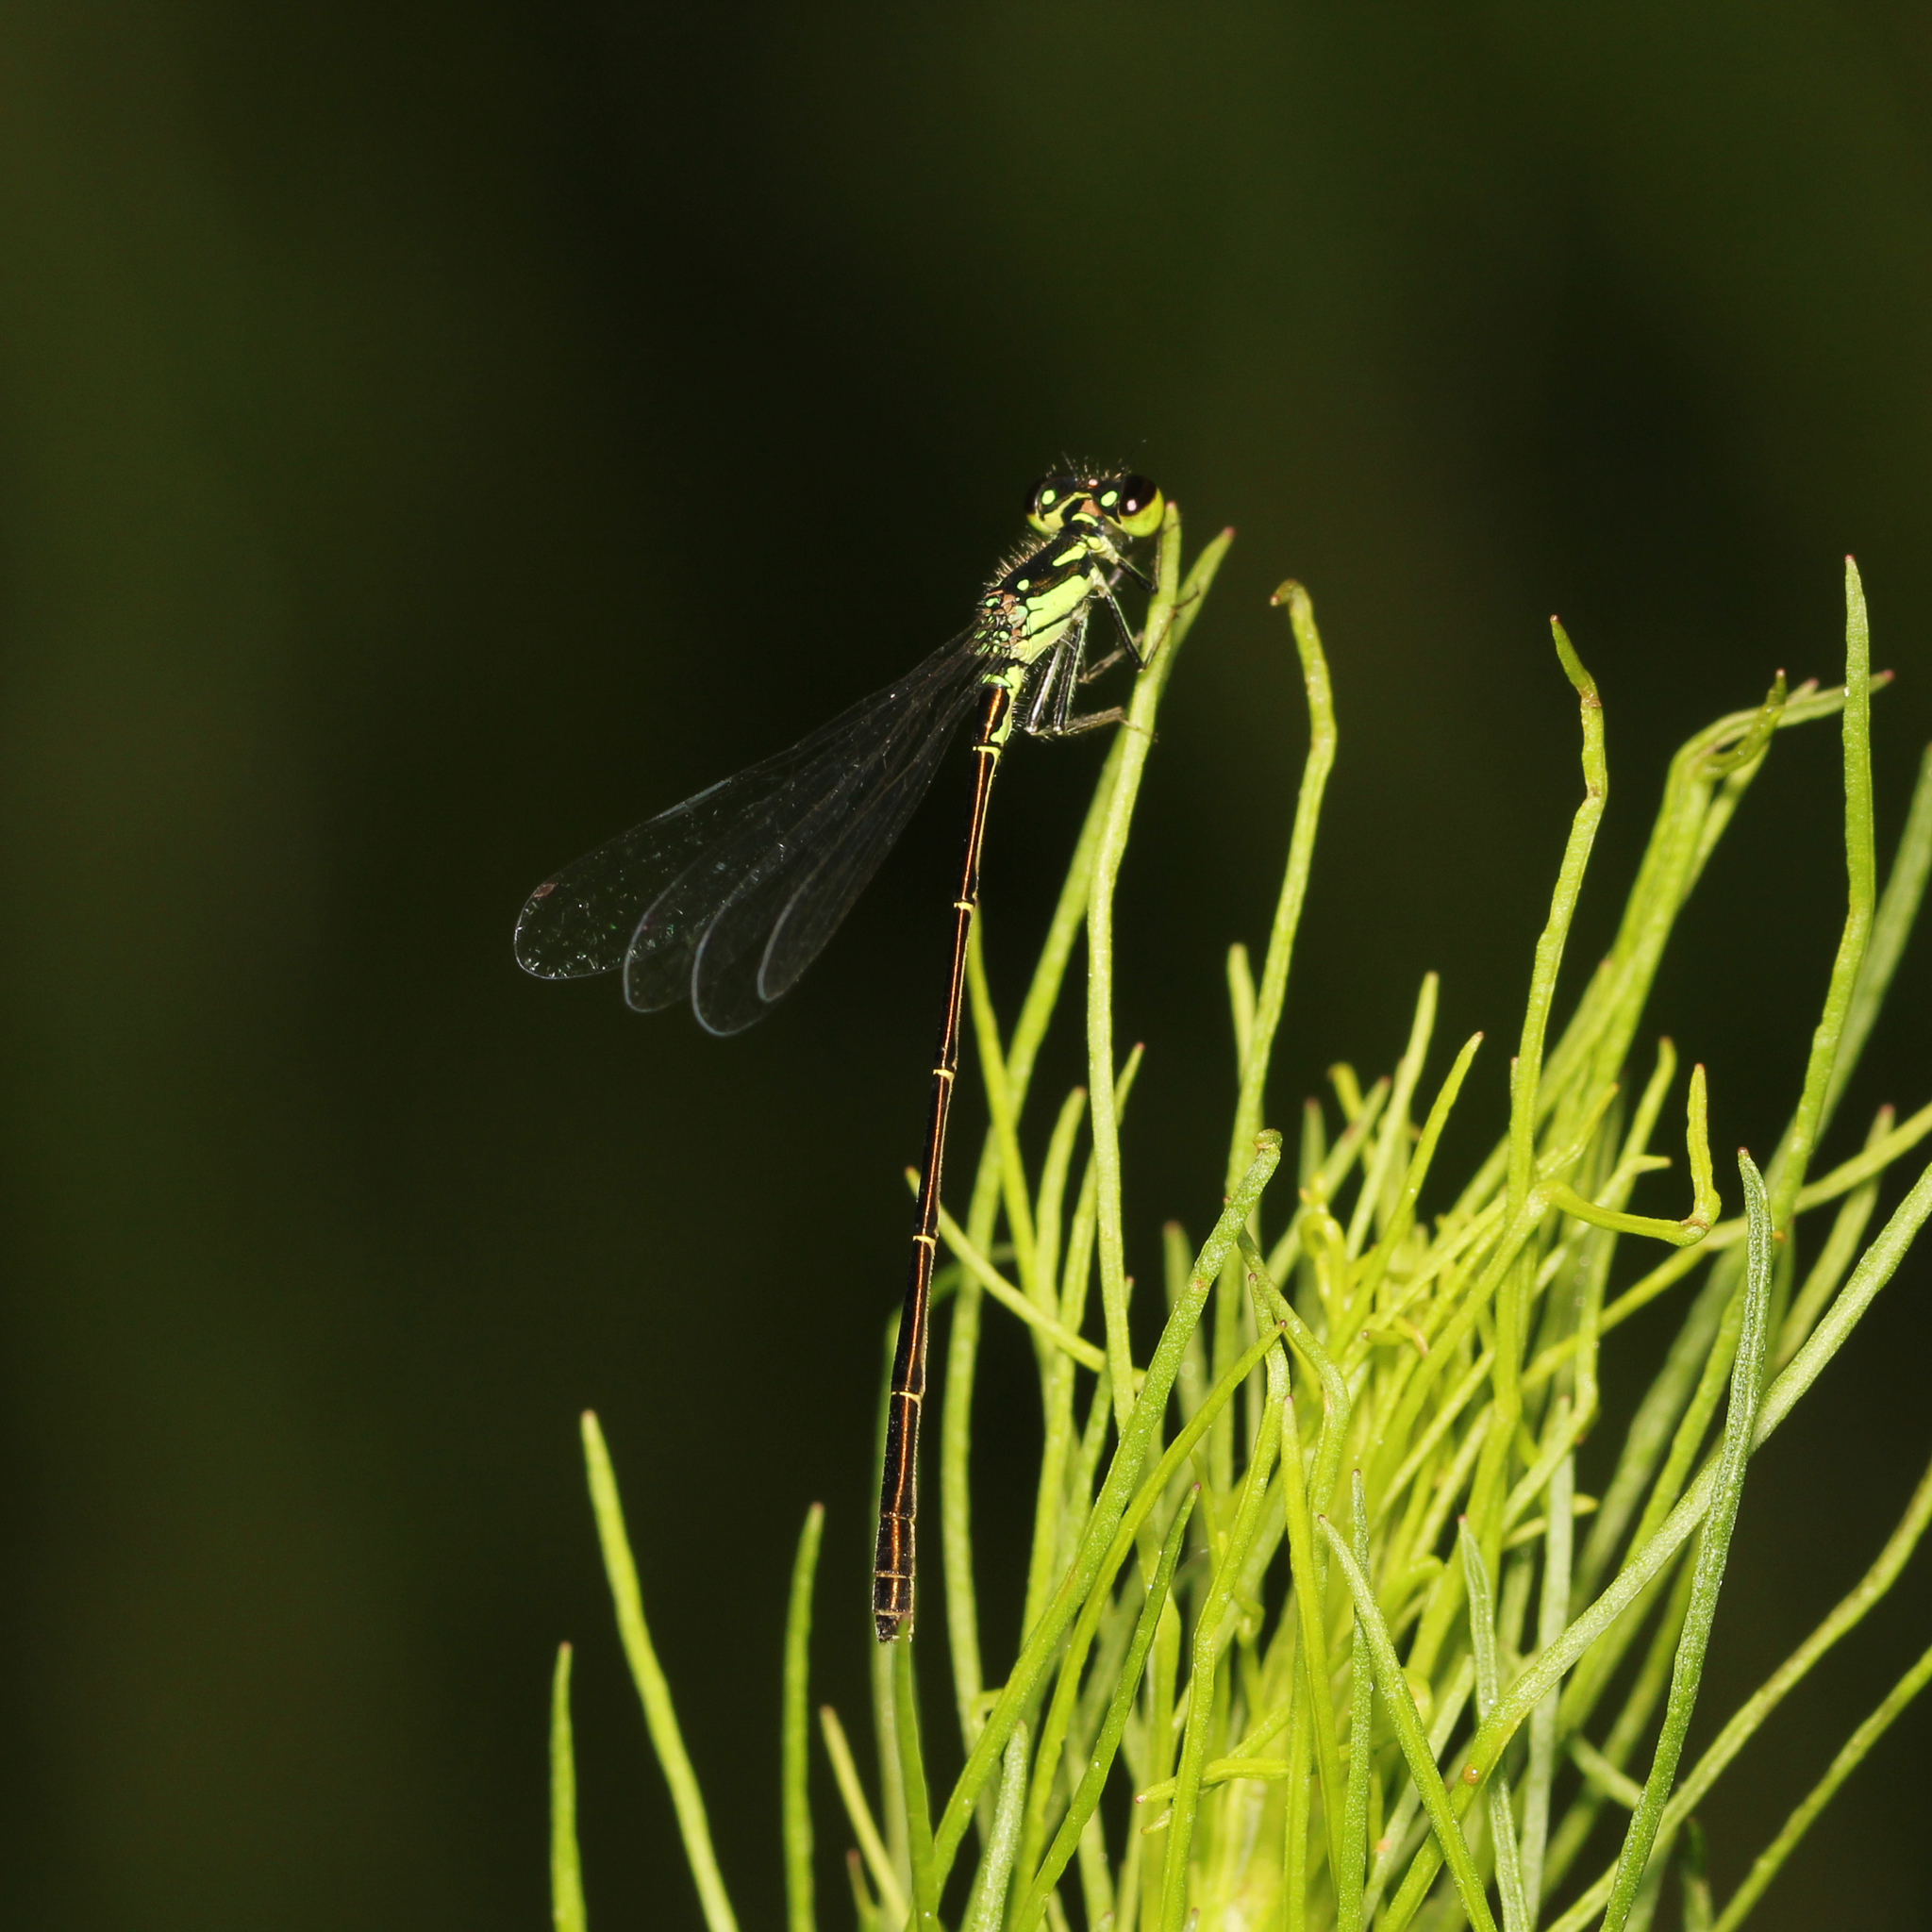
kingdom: Animalia
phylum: Arthropoda
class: Insecta
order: Odonata
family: Coenagrionidae
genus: Ischnura
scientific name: Ischnura posita
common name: Fragile forktail
